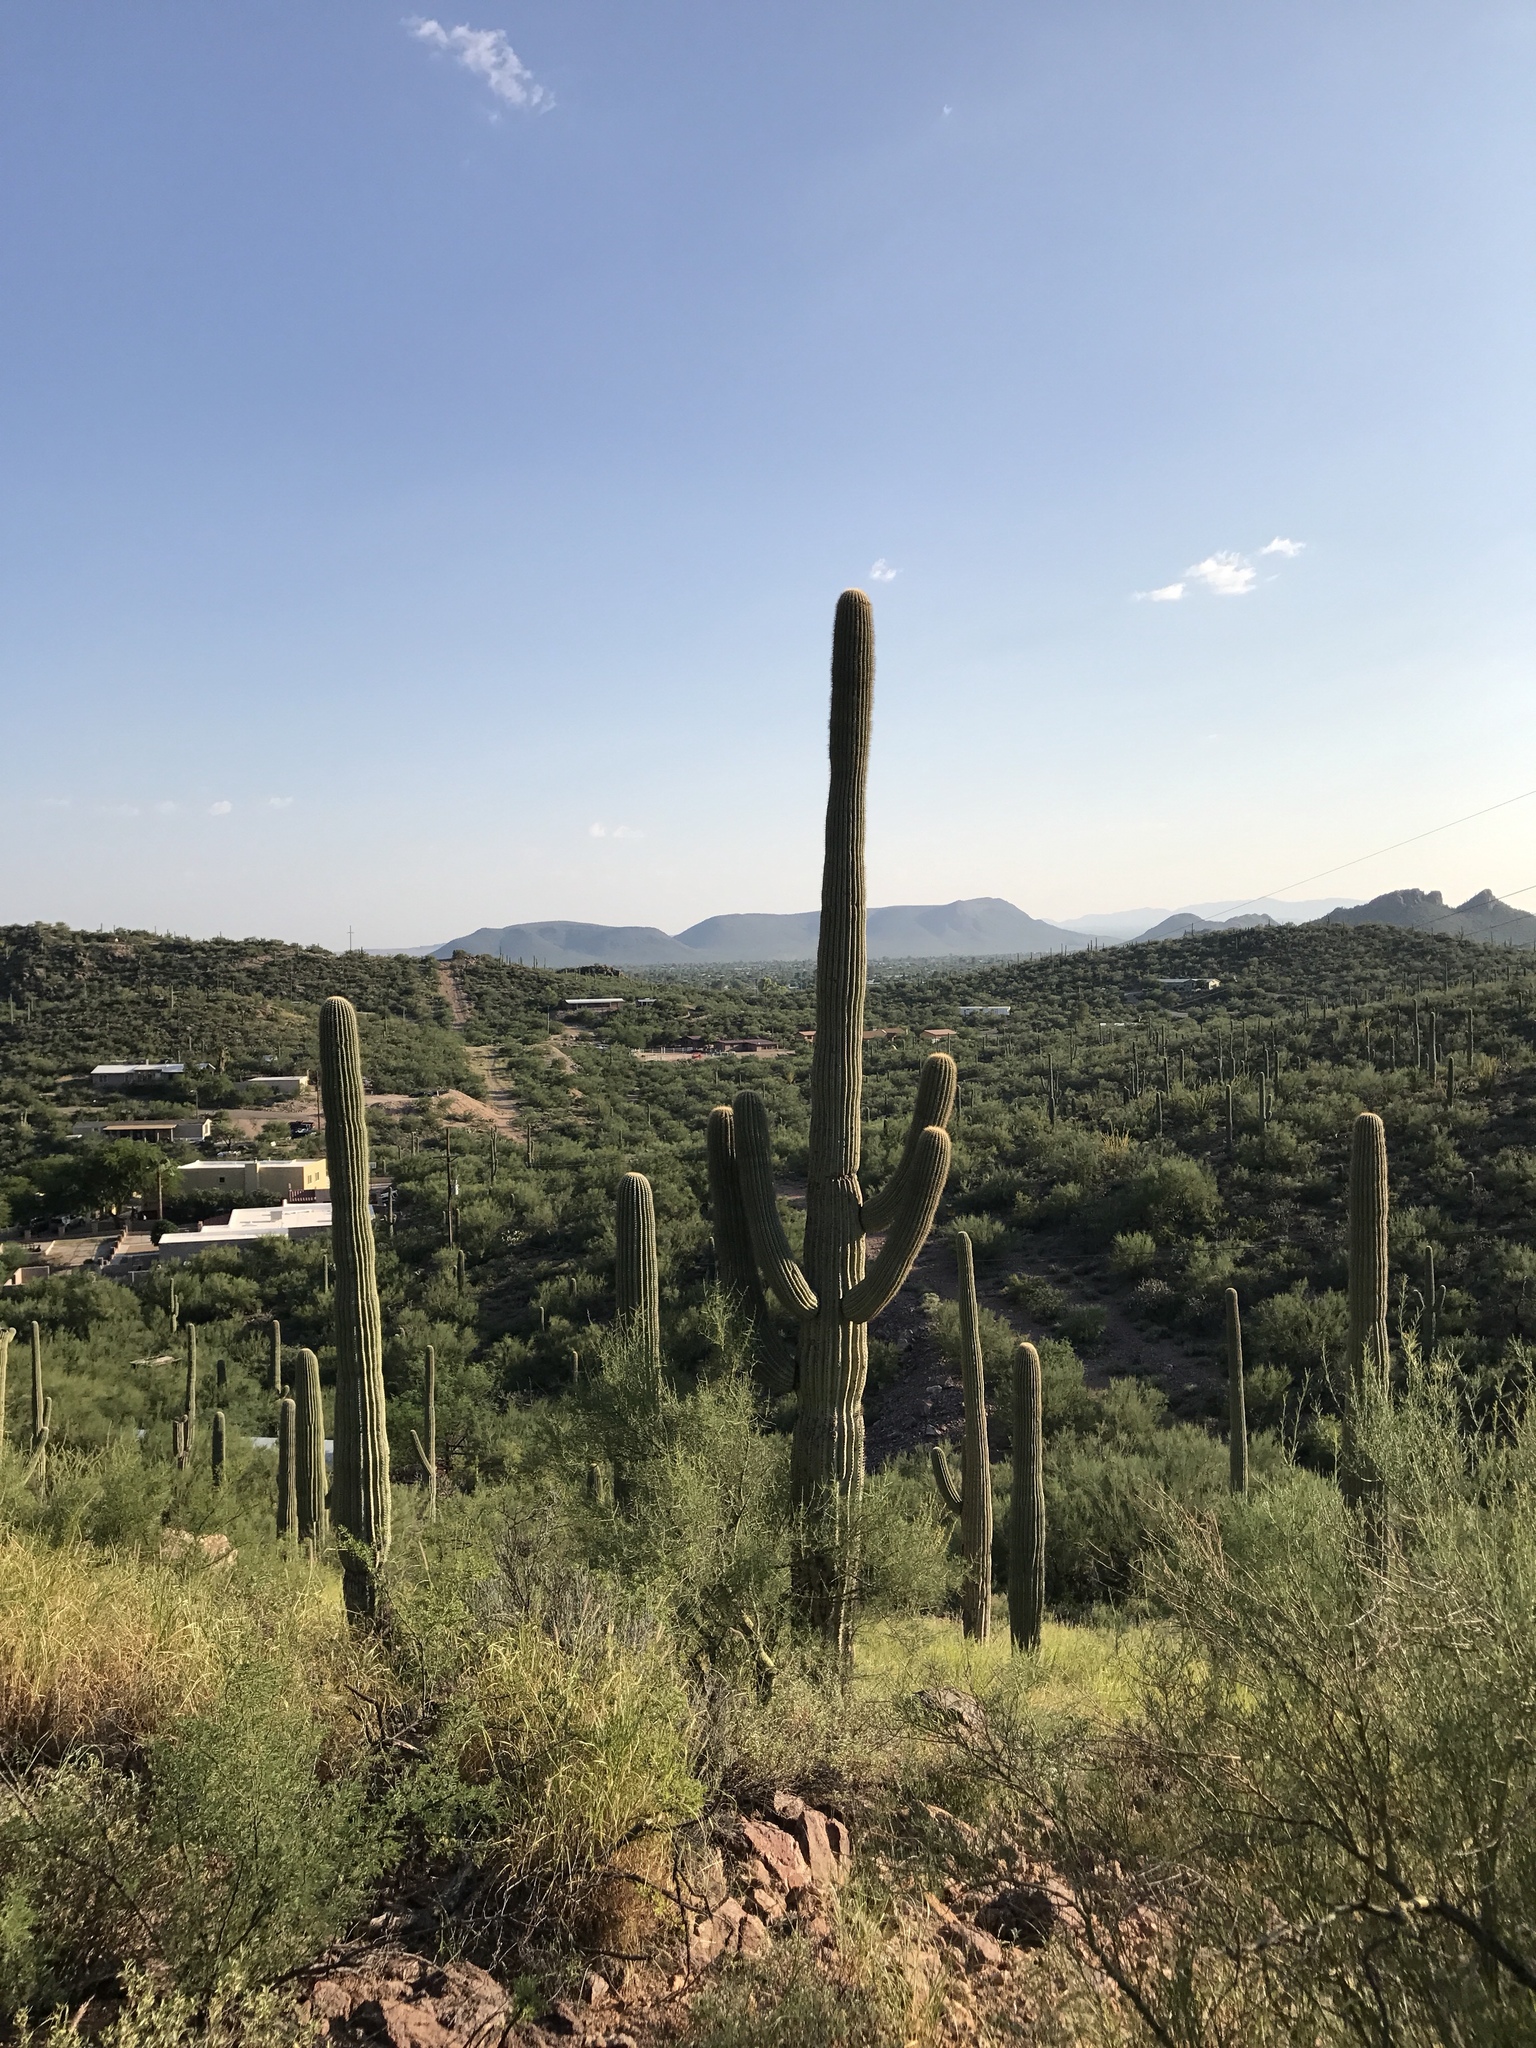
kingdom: Plantae
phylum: Tracheophyta
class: Magnoliopsida
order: Caryophyllales
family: Cactaceae
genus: Carnegiea
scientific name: Carnegiea gigantea
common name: Saguaro
